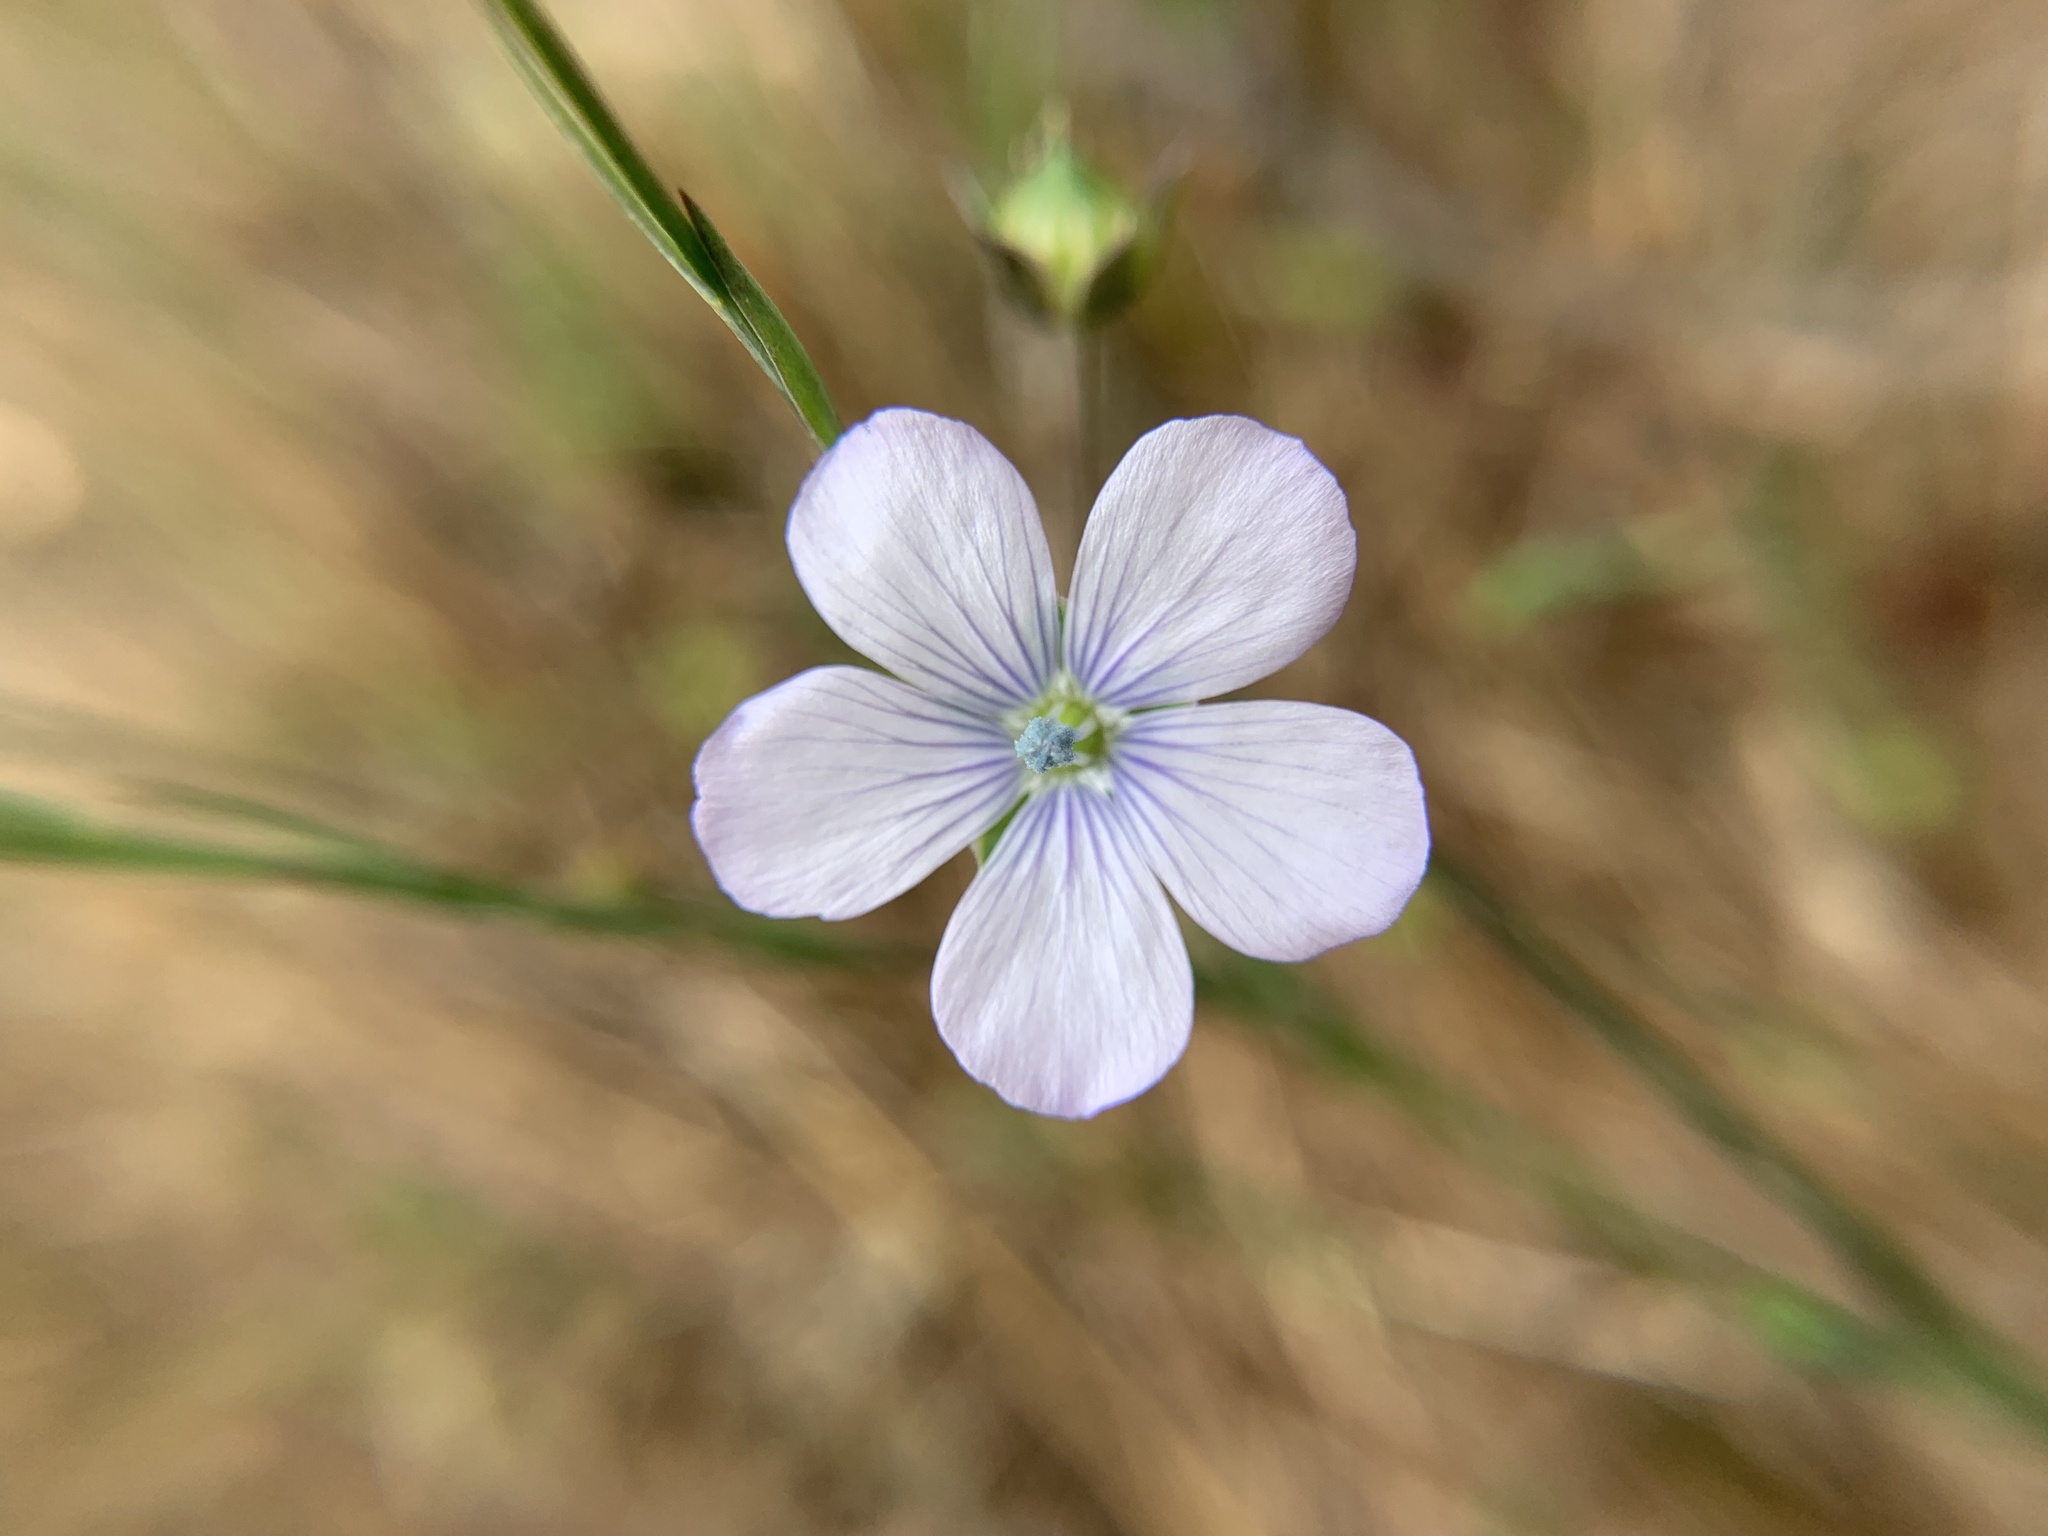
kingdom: Plantae
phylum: Tracheophyta
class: Magnoliopsida
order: Malpighiales
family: Linaceae
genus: Linum
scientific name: Linum bienne
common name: Pale flax
